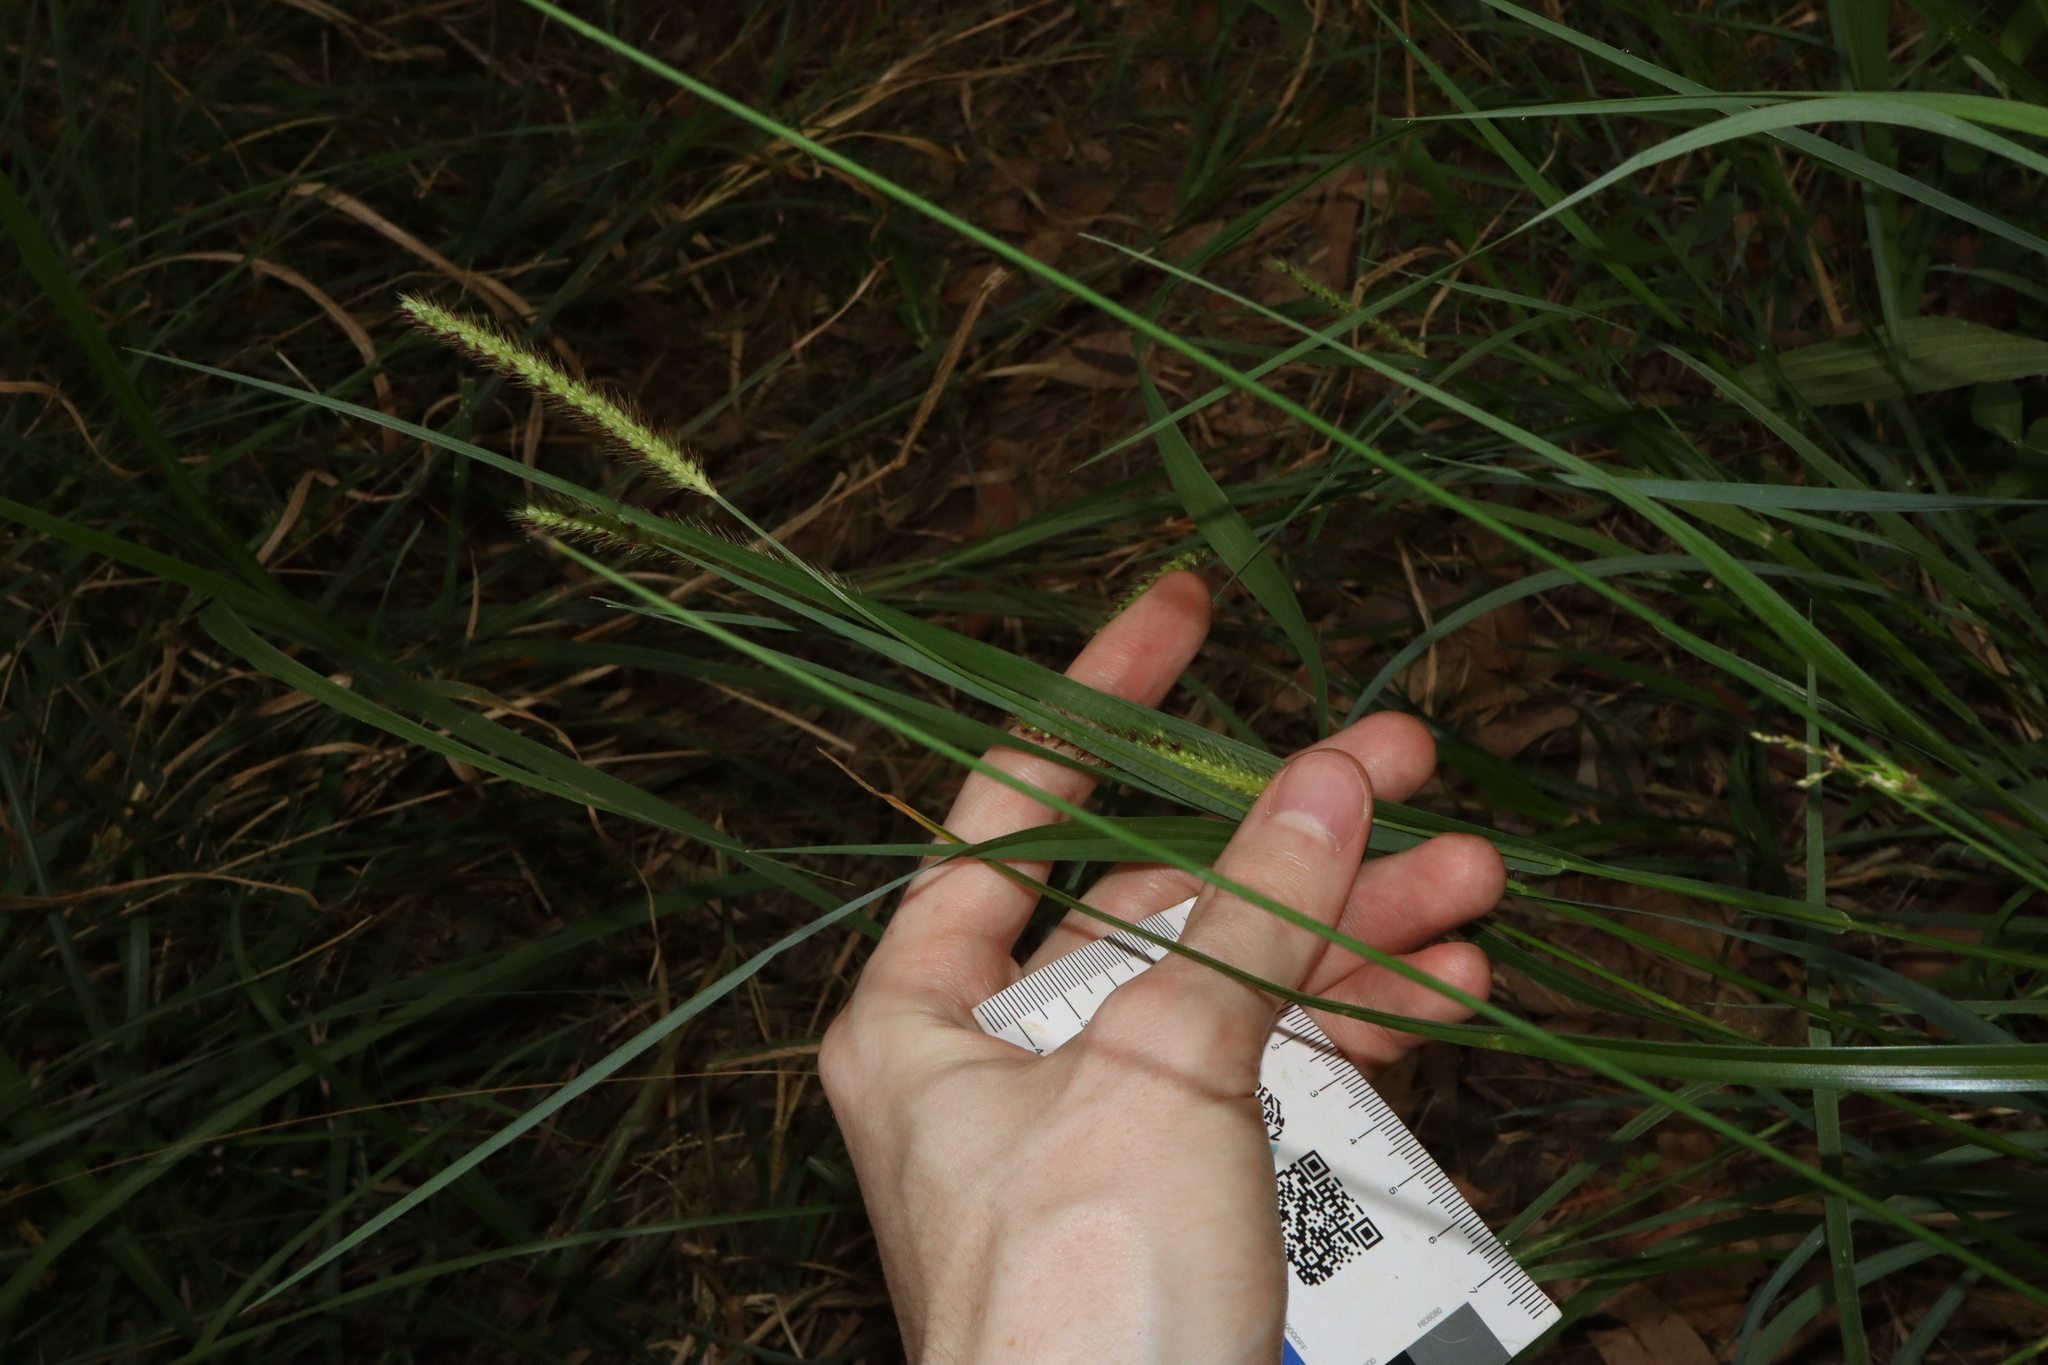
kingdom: Plantae
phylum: Tracheophyta
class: Liliopsida
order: Poales
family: Poaceae
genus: Setaria
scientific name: Setaria parviflora
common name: Knotroot bristle-grass
